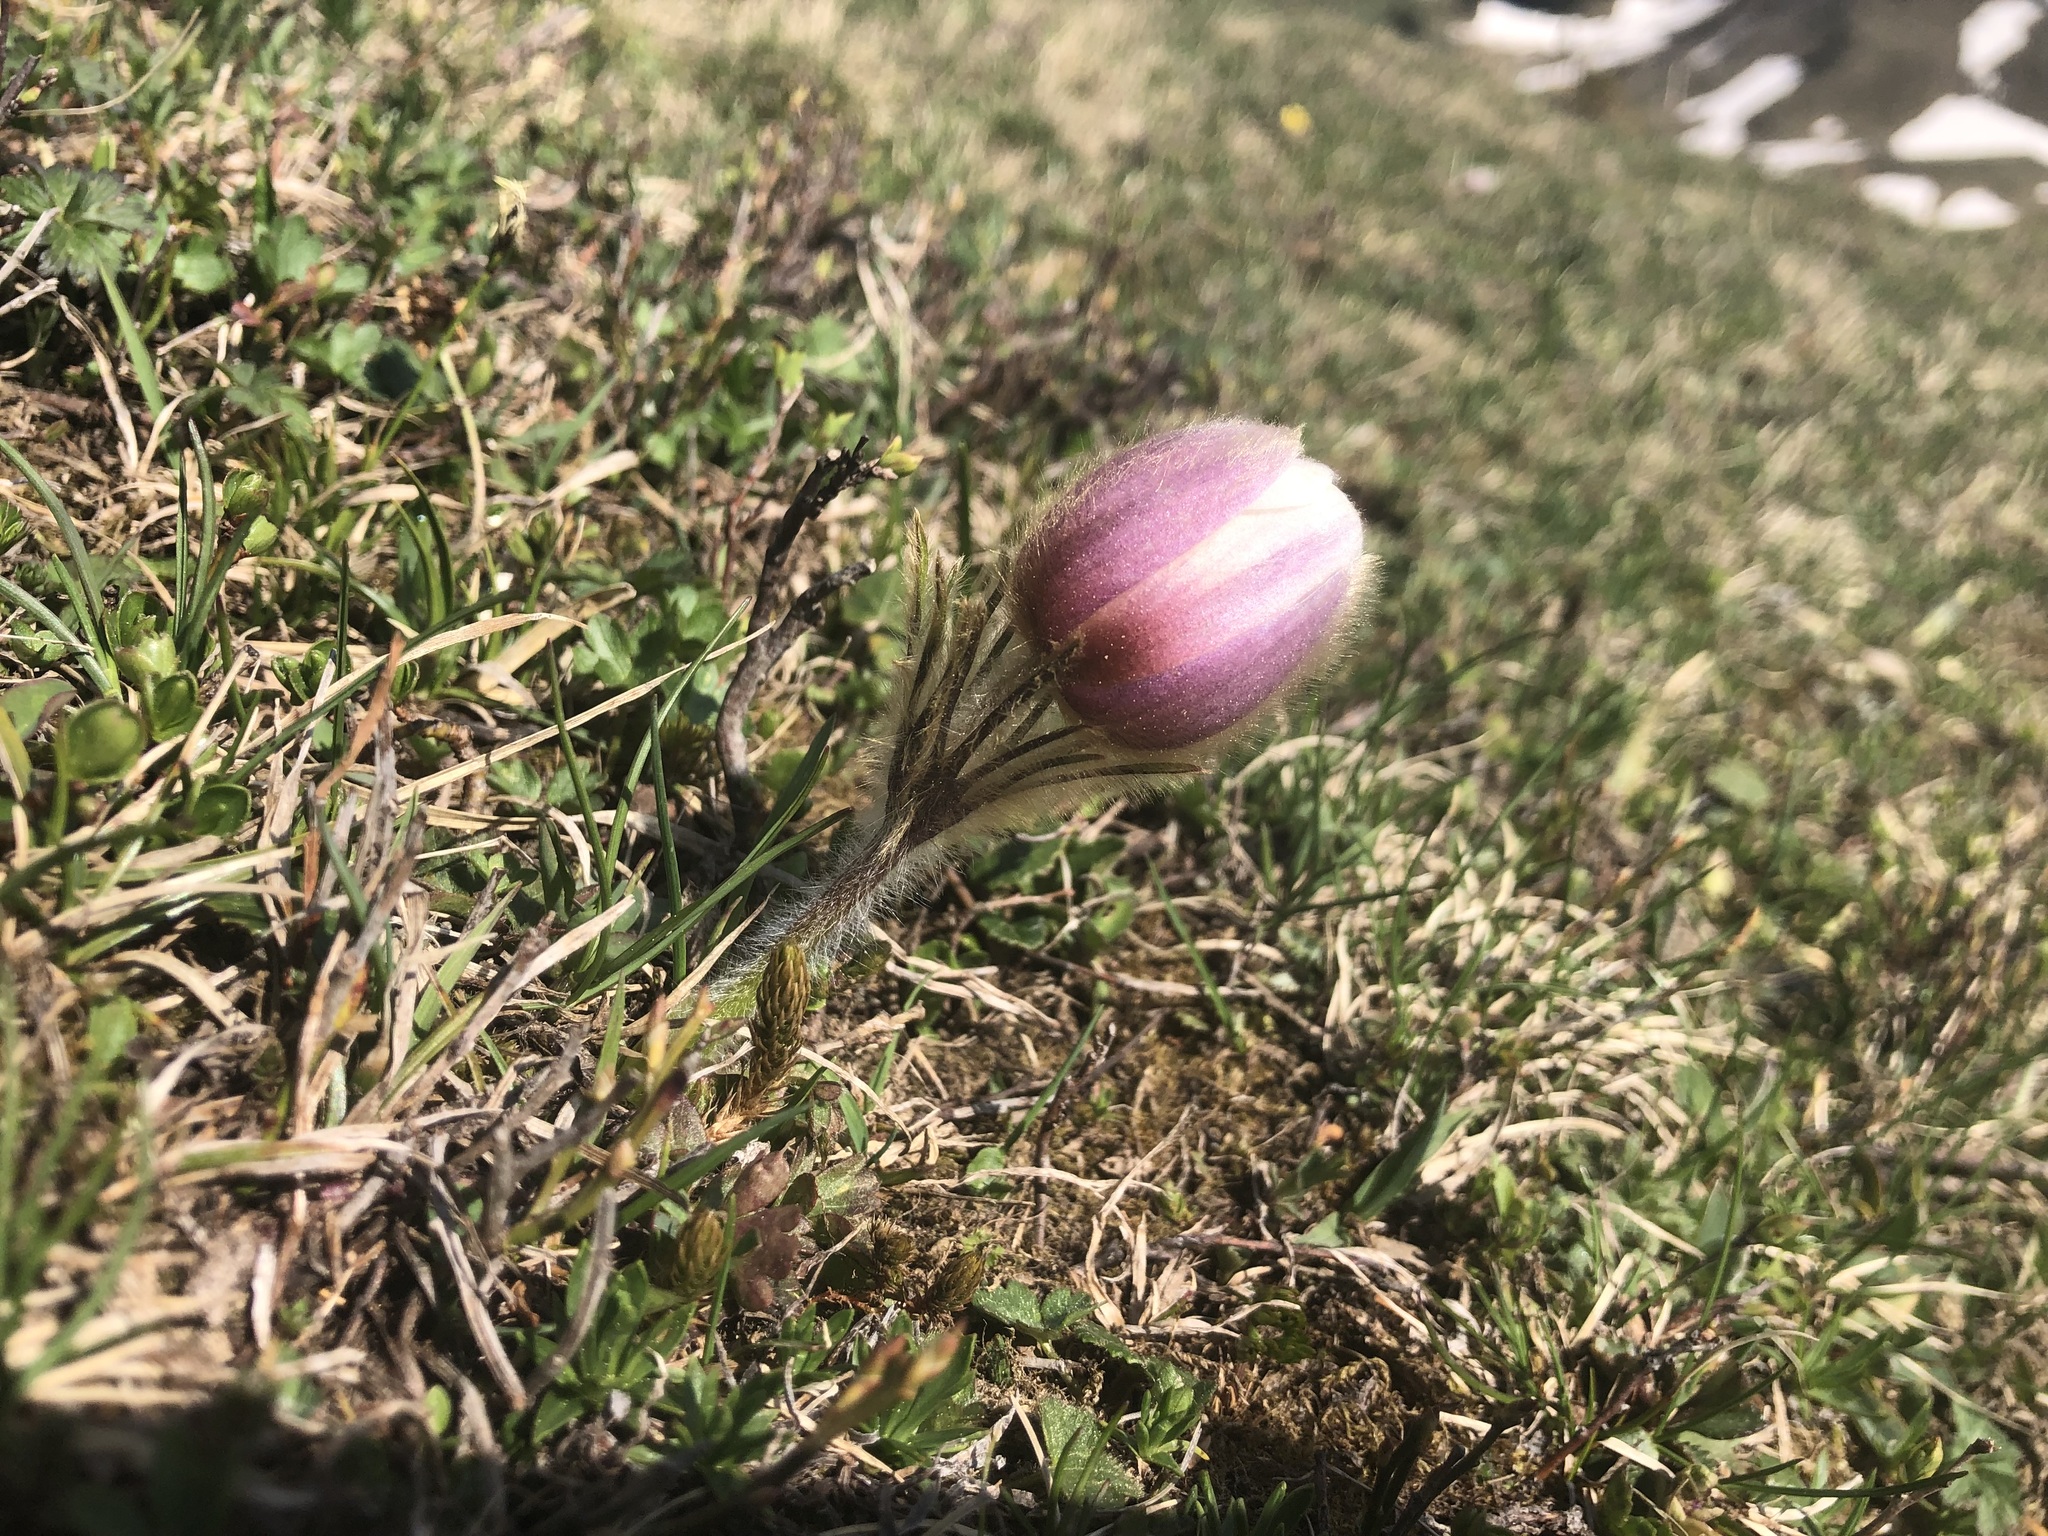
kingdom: Plantae
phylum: Tracheophyta
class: Magnoliopsida
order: Ranunculales
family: Ranunculaceae
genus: Pulsatilla
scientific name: Pulsatilla vernalis
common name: Spring pasque flower
